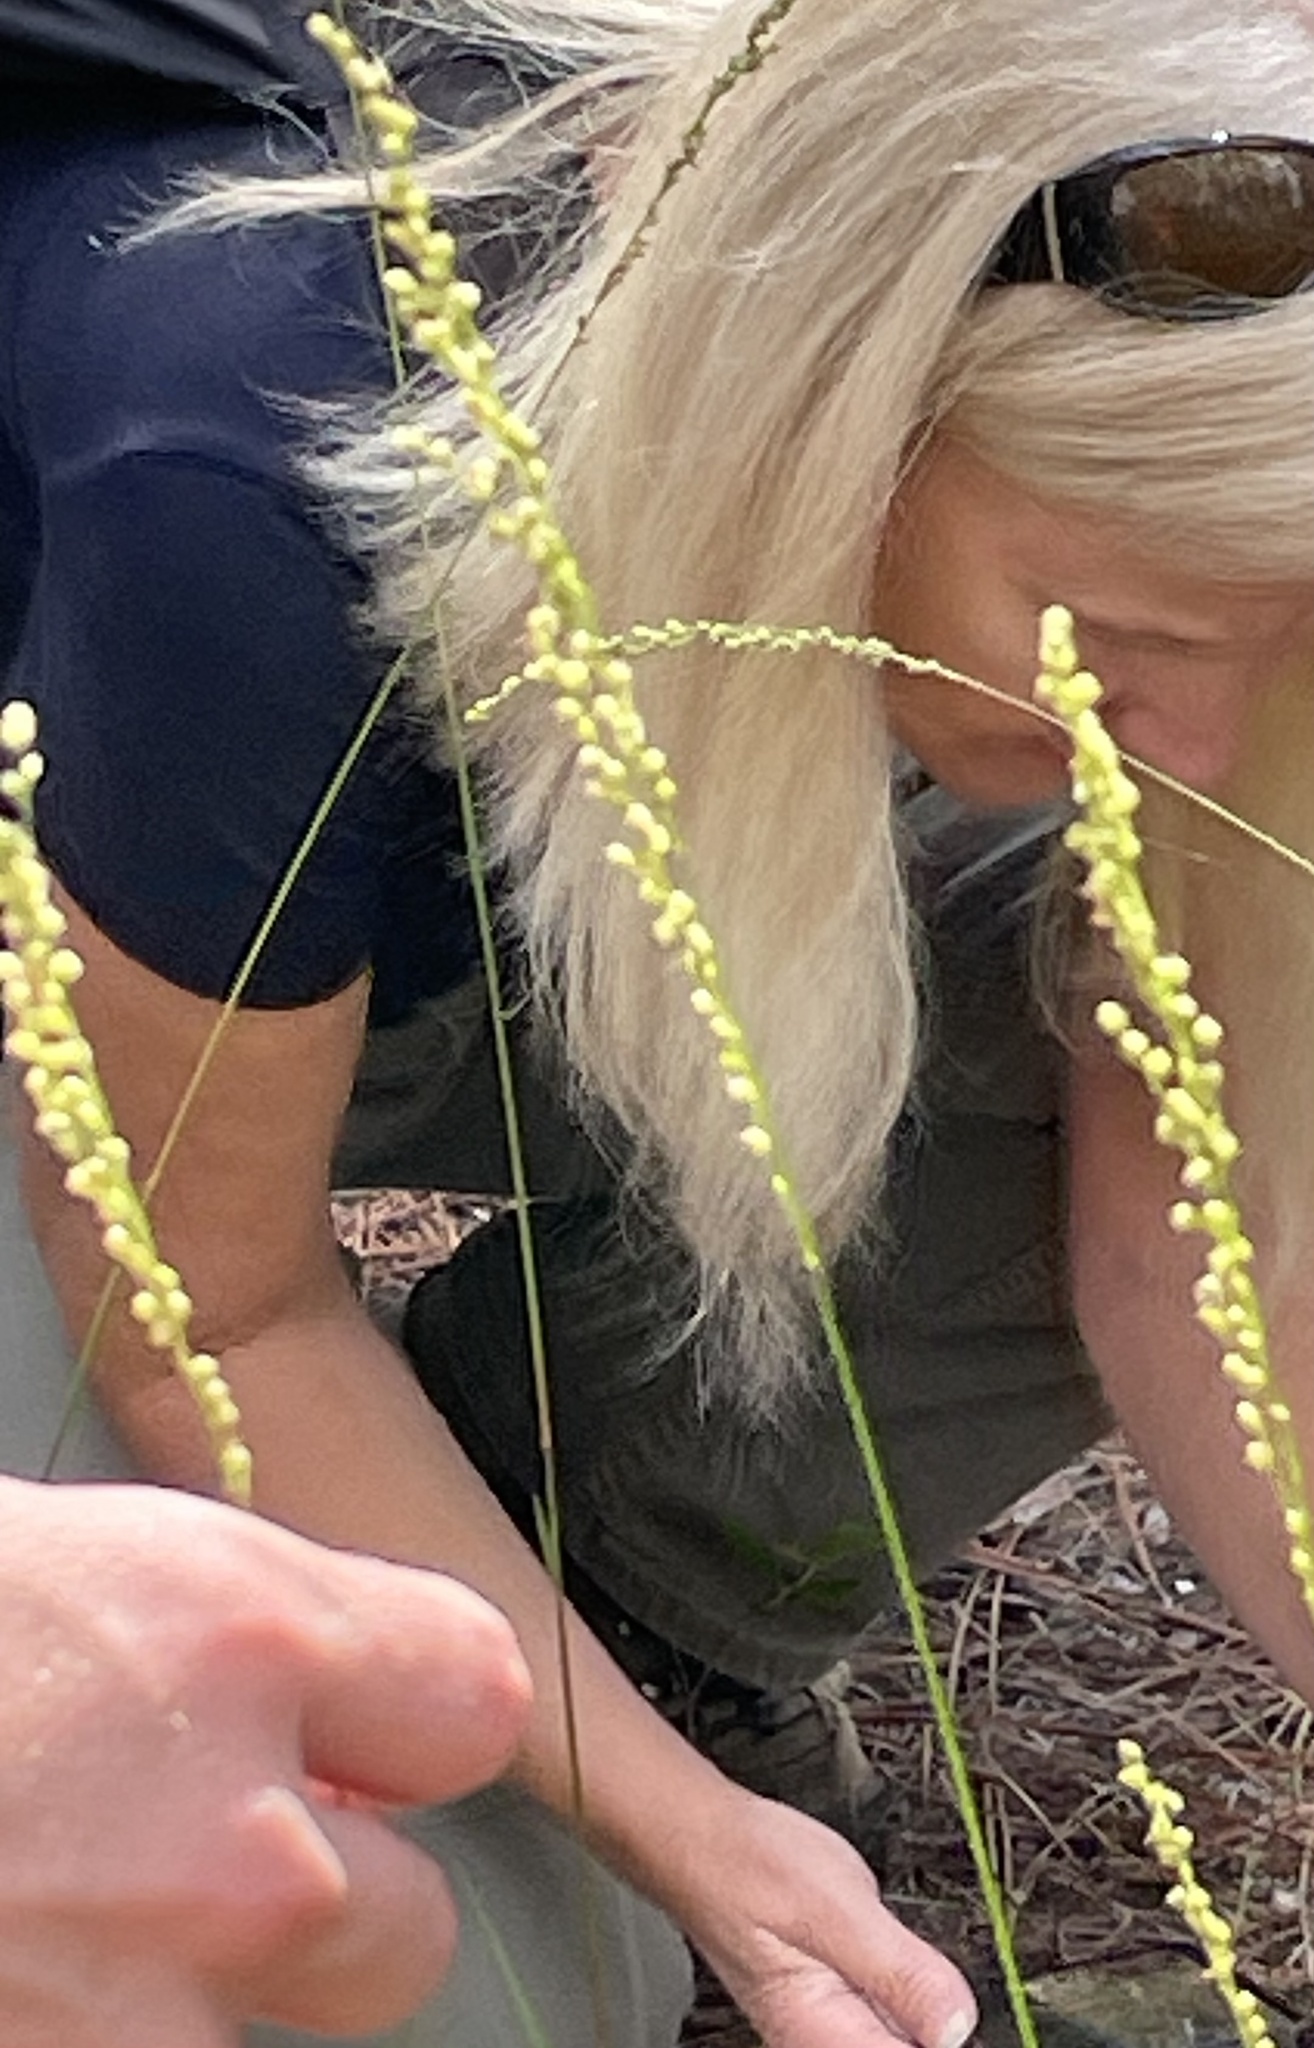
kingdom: Plantae
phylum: Tracheophyta
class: Liliopsida
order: Poales
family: Poaceae
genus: Anthenantia
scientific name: Anthenantia villosa
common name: Green silkyscale
